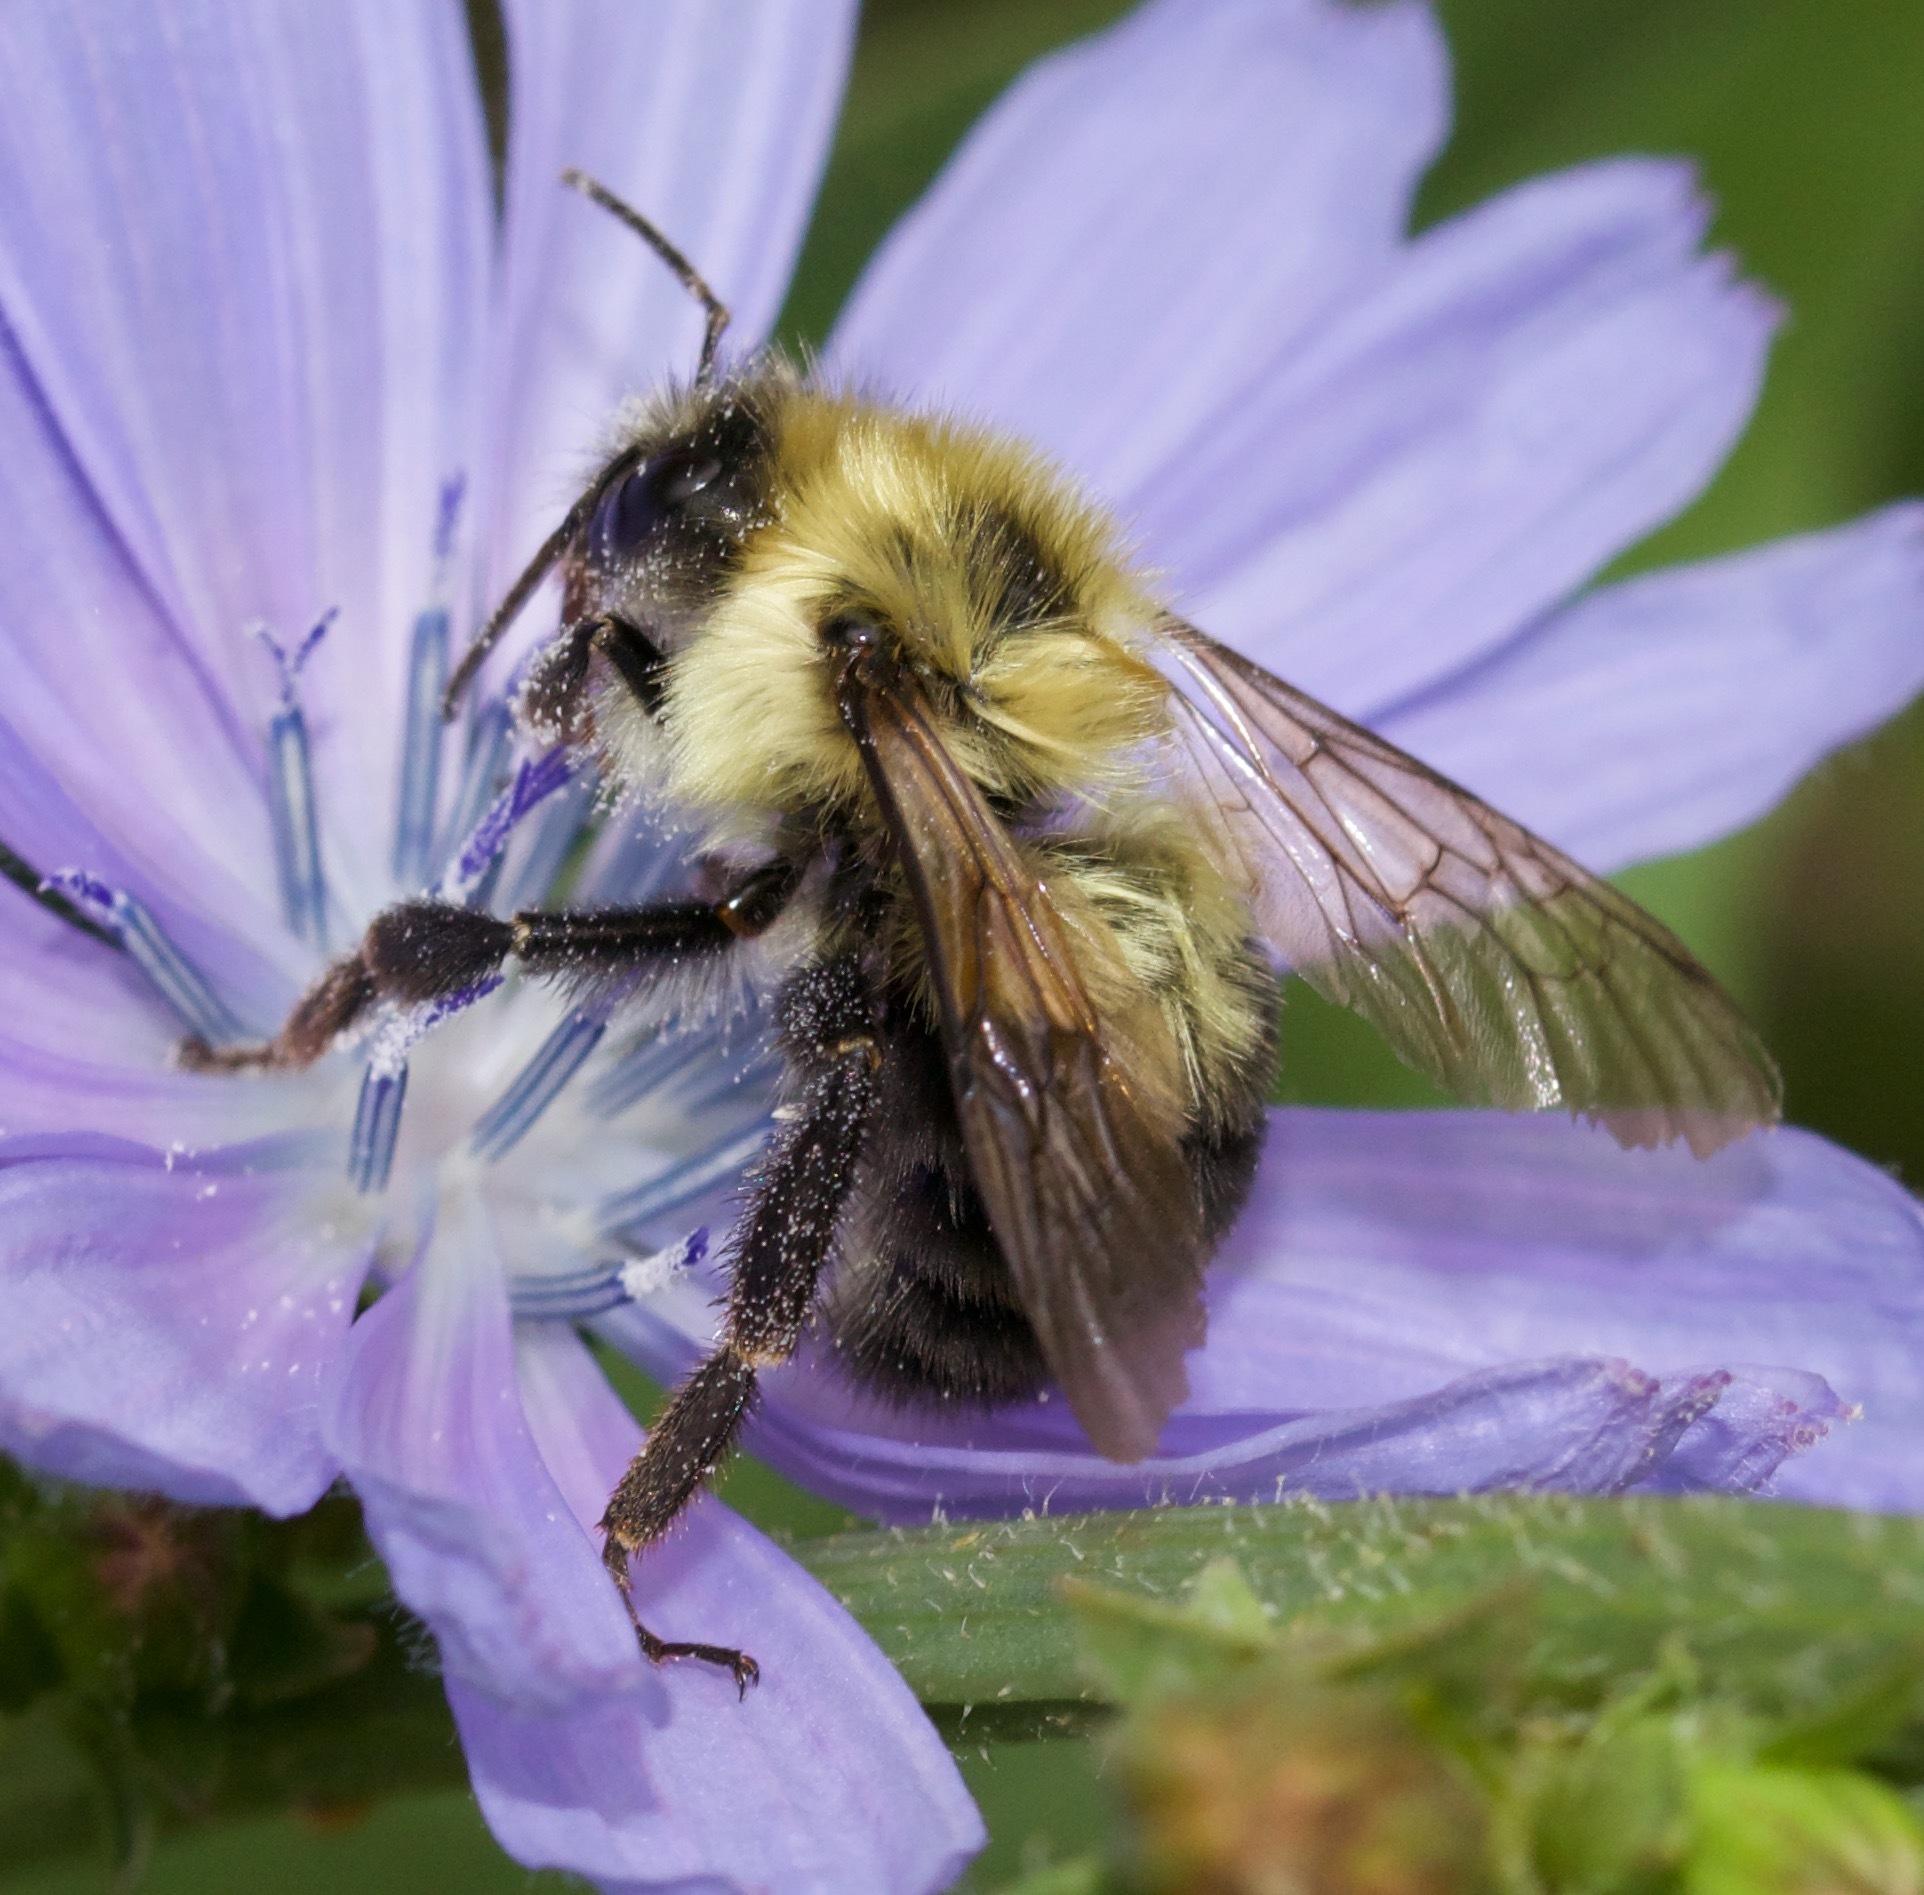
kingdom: Animalia
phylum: Arthropoda
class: Insecta
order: Hymenoptera
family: Apidae
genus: Bombus
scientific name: Bombus bimaculatus
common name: Two-spotted bumble bee
